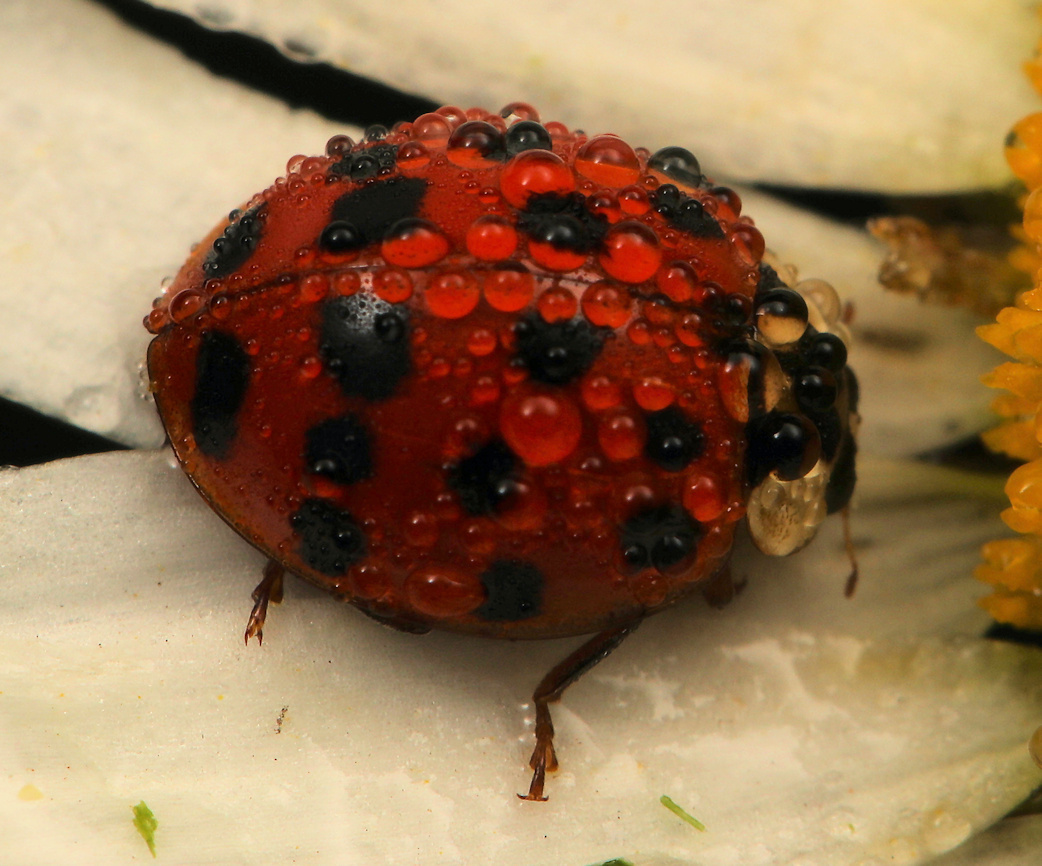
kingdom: Animalia
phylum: Arthropoda
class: Insecta
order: Coleoptera
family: Coccinellidae
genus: Harmonia
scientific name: Harmonia axyridis
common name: Harlequin ladybird
